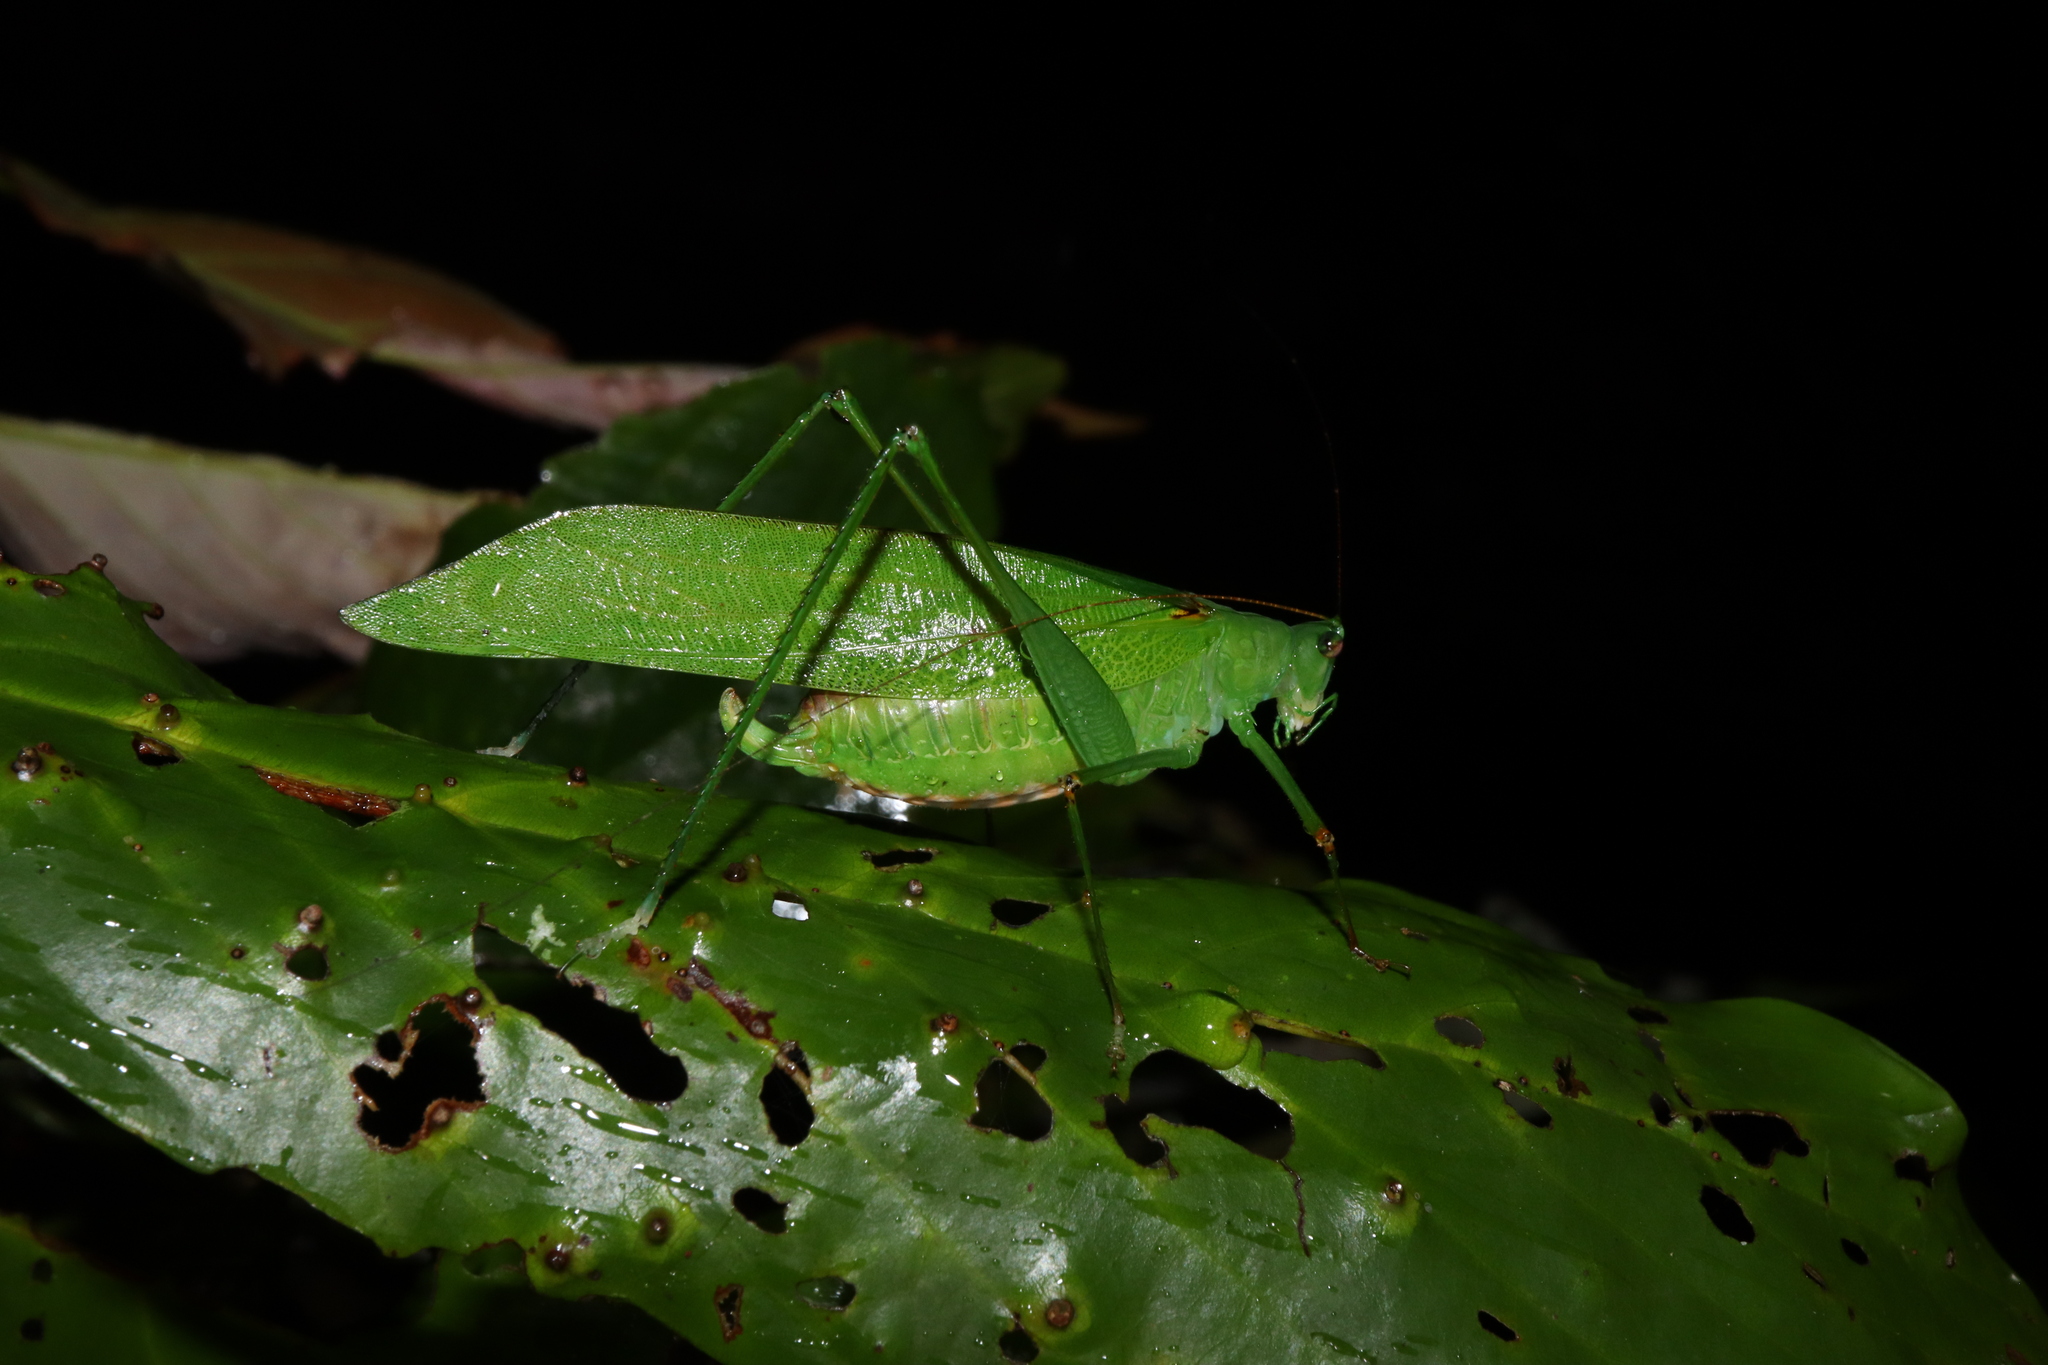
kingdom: Animalia
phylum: Arthropoda
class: Insecta
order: Orthoptera
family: Tettigoniidae
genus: Leucopodoptera
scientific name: Leucopodoptera eumundii
